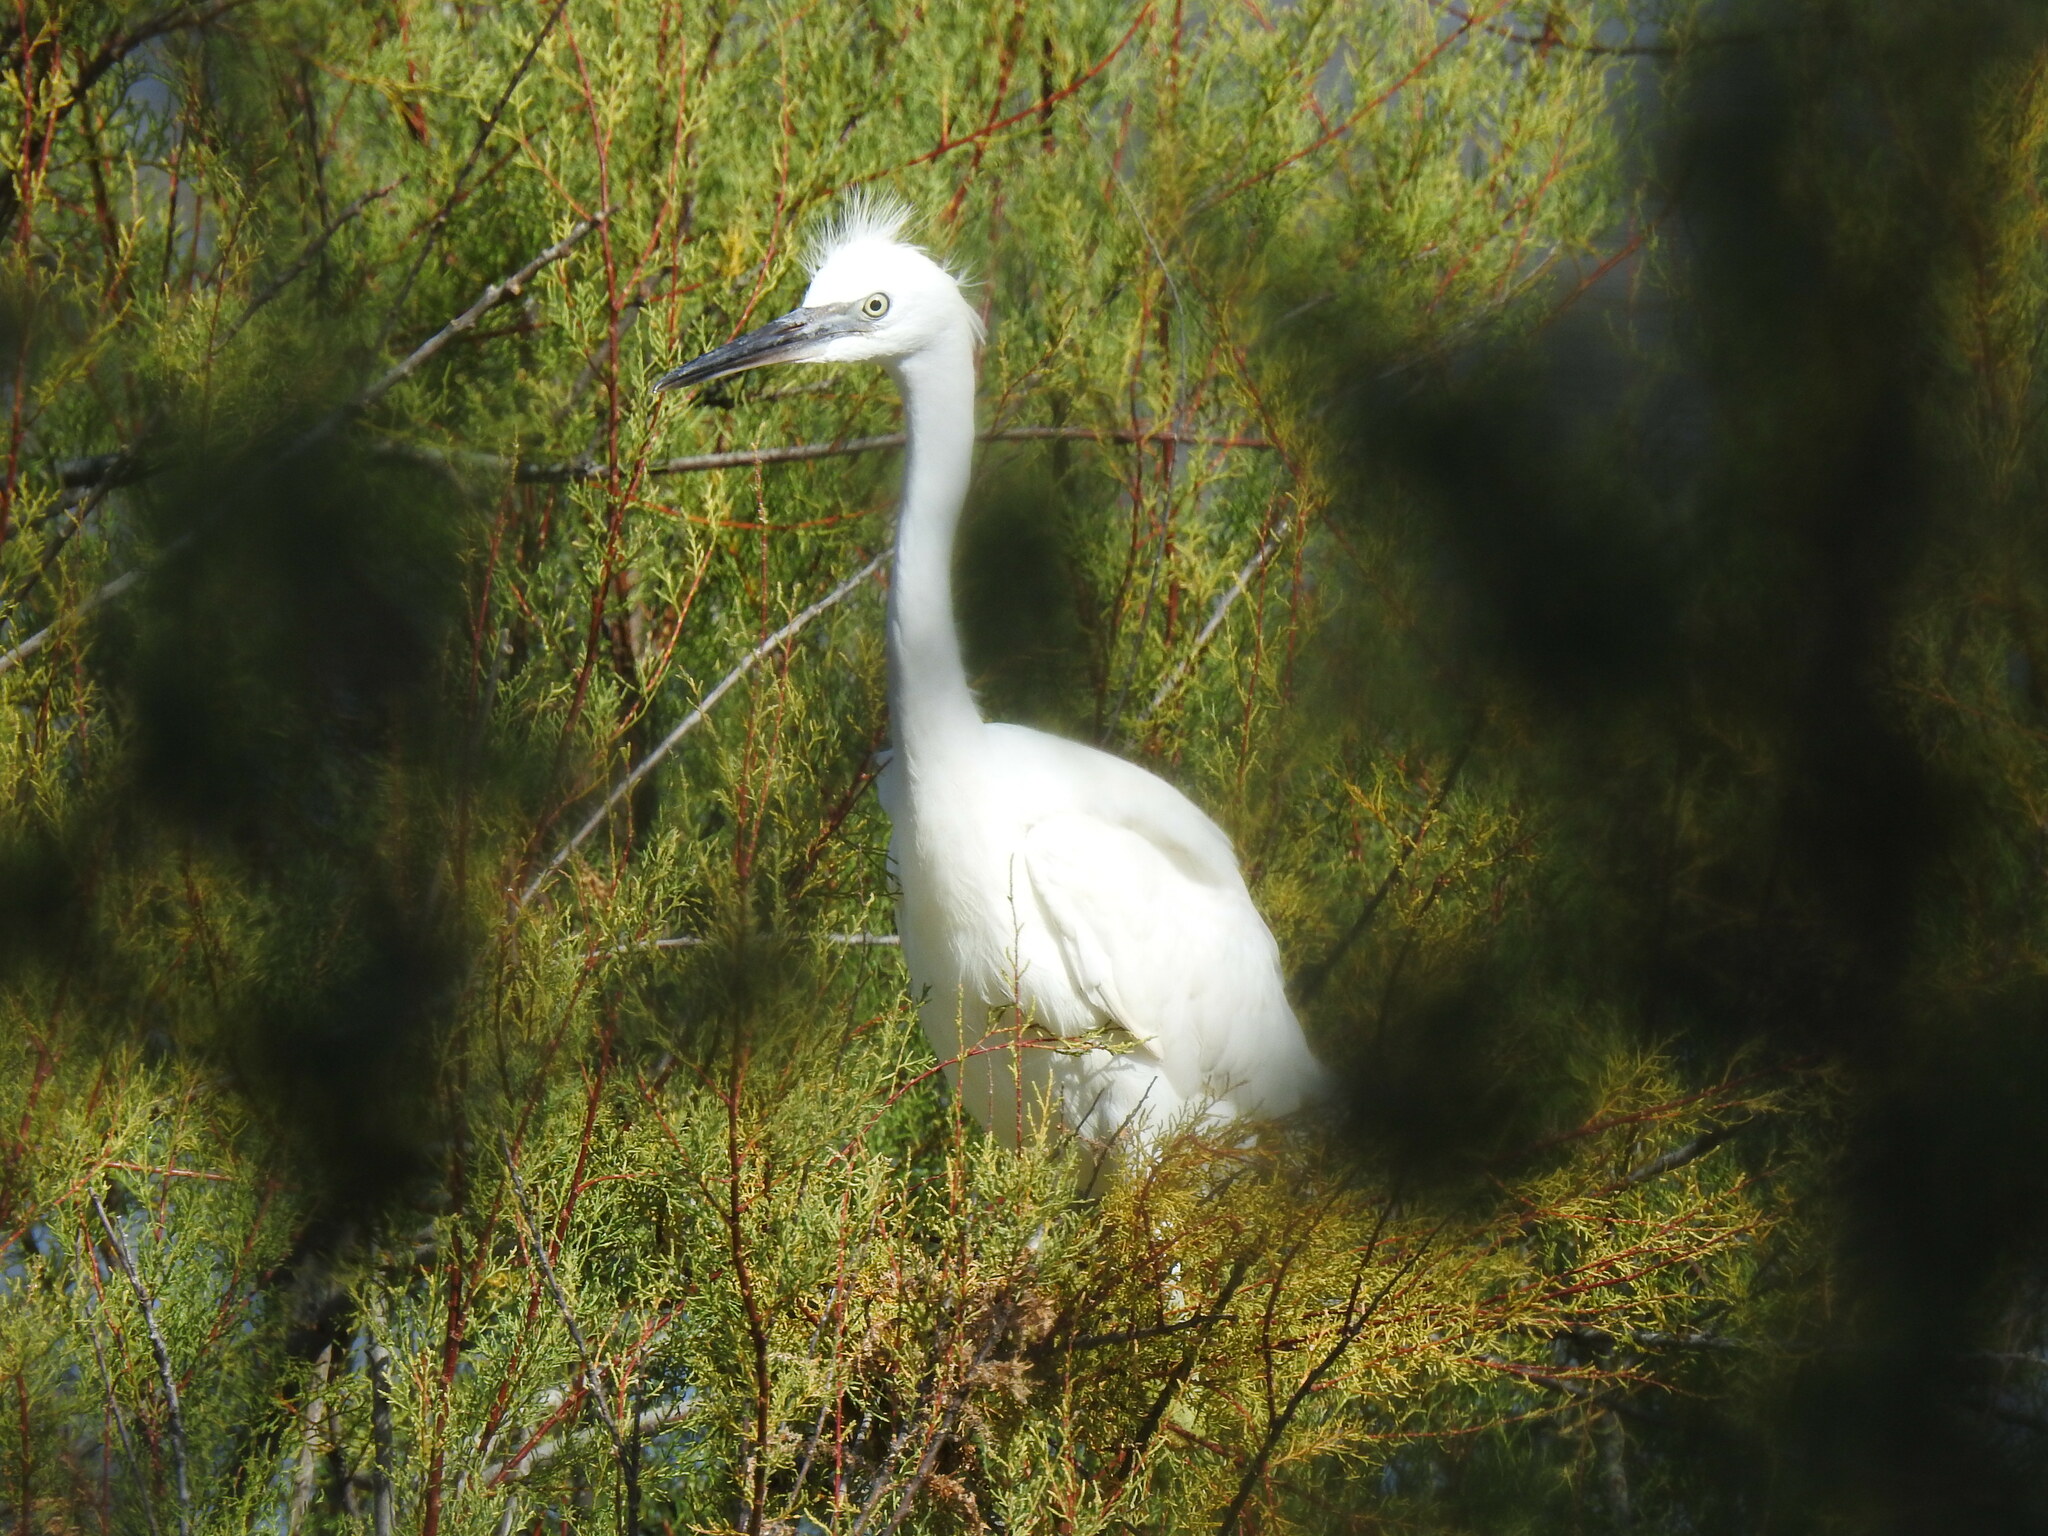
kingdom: Animalia
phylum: Chordata
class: Aves
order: Pelecaniformes
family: Ardeidae
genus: Egretta
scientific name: Egretta garzetta
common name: Little egret
